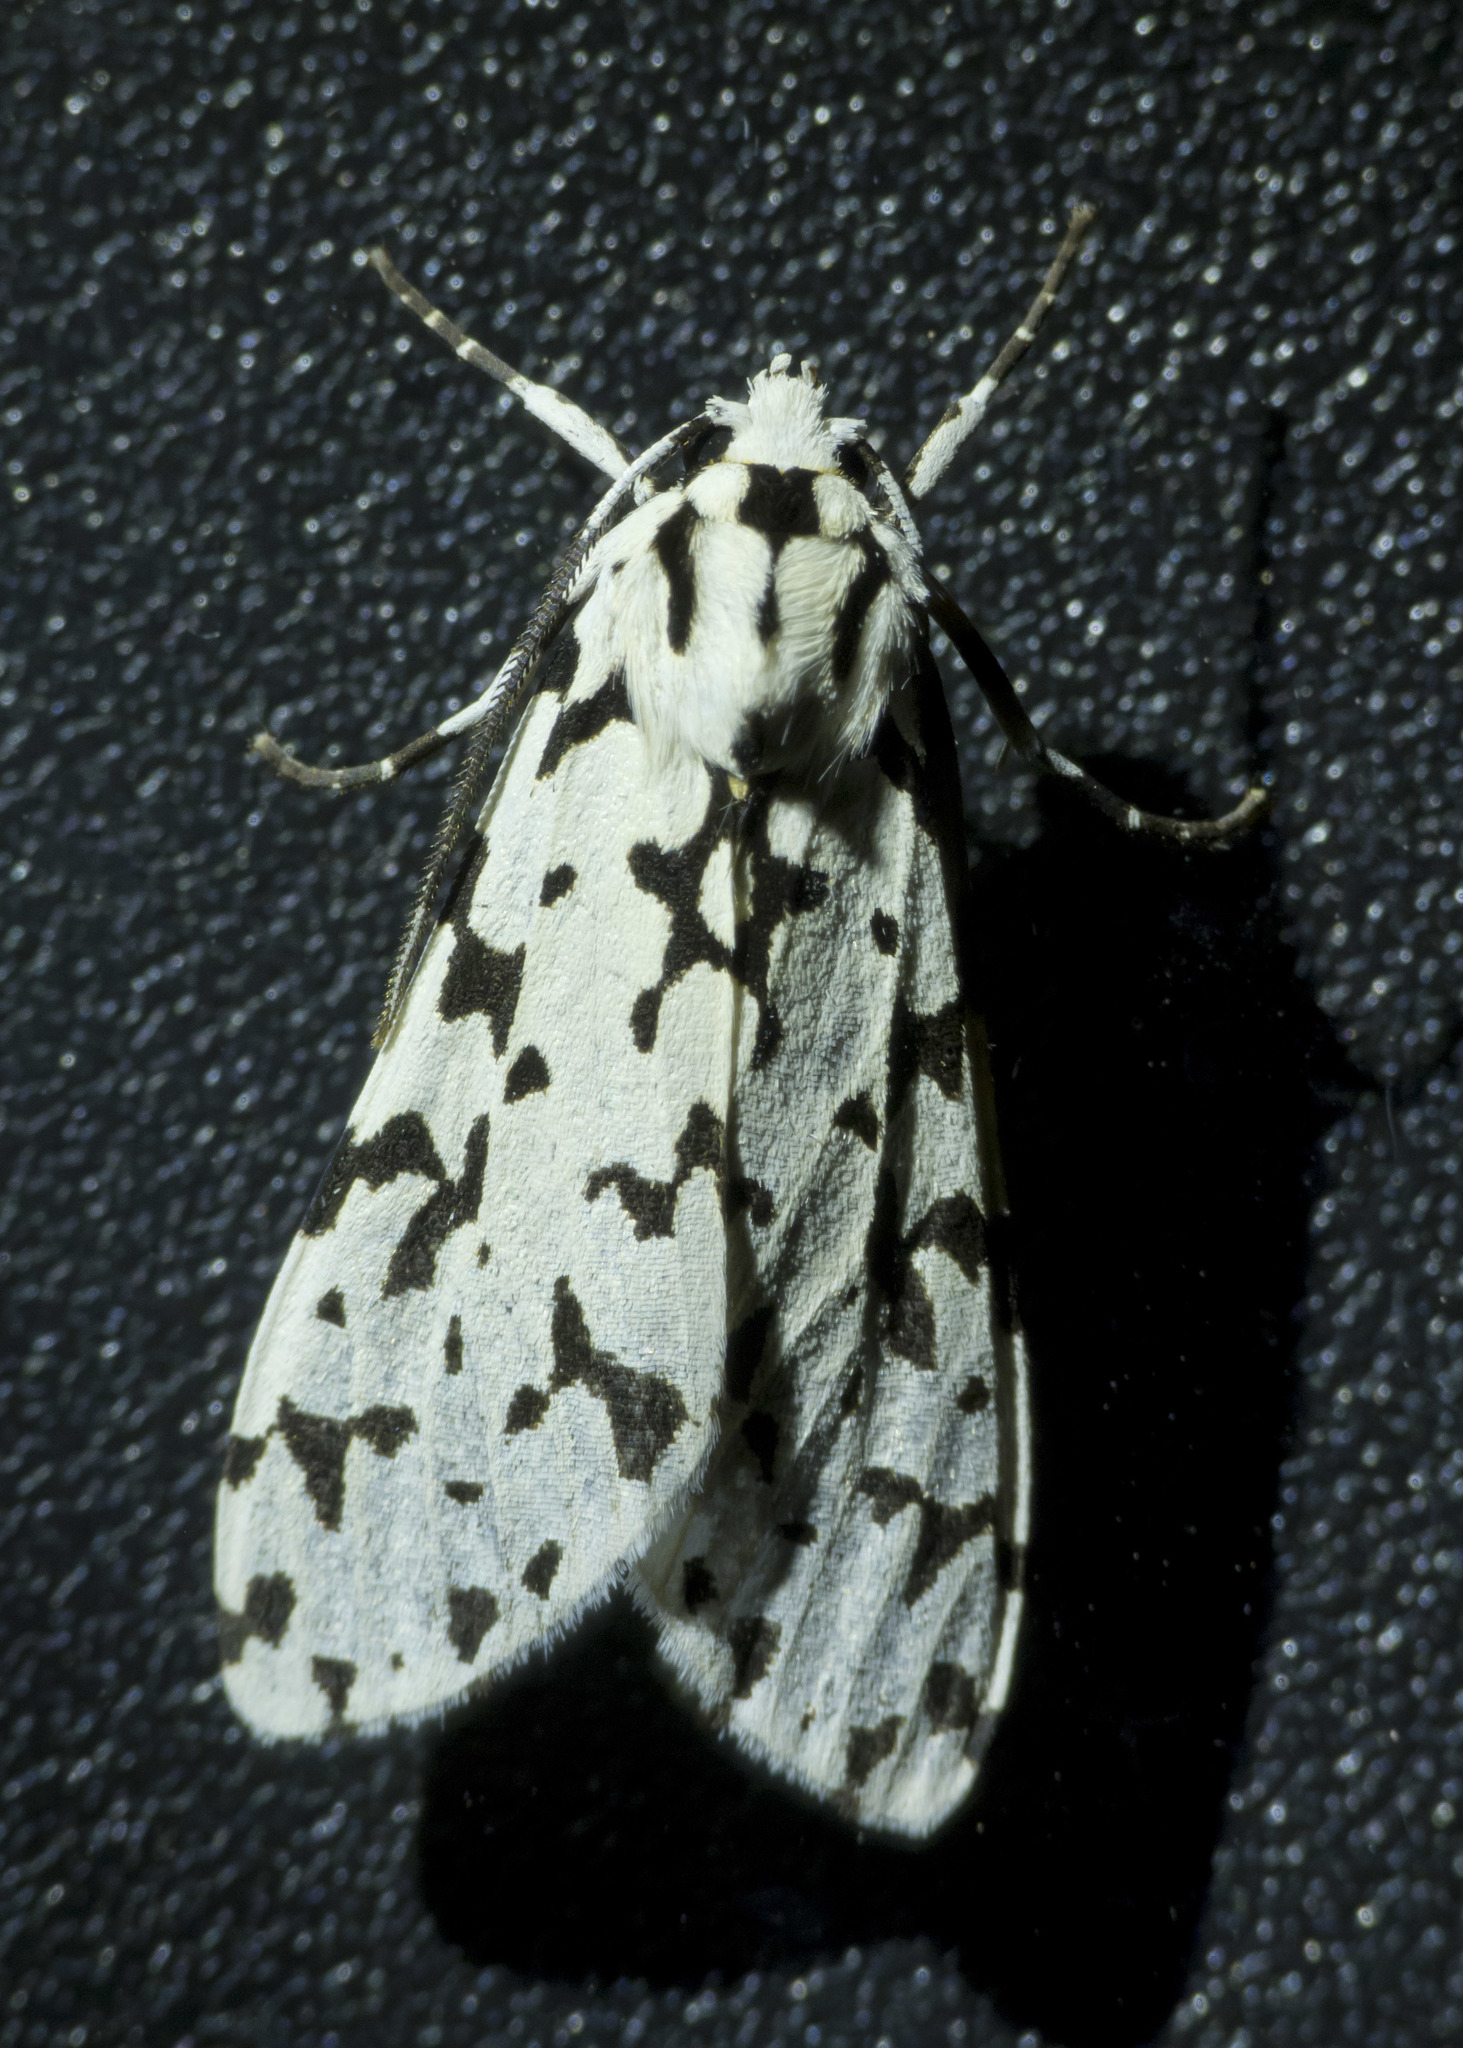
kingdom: Animalia
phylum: Arthropoda
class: Insecta
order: Lepidoptera
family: Erebidae
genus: Eucereon
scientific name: Eucereon tigrata
